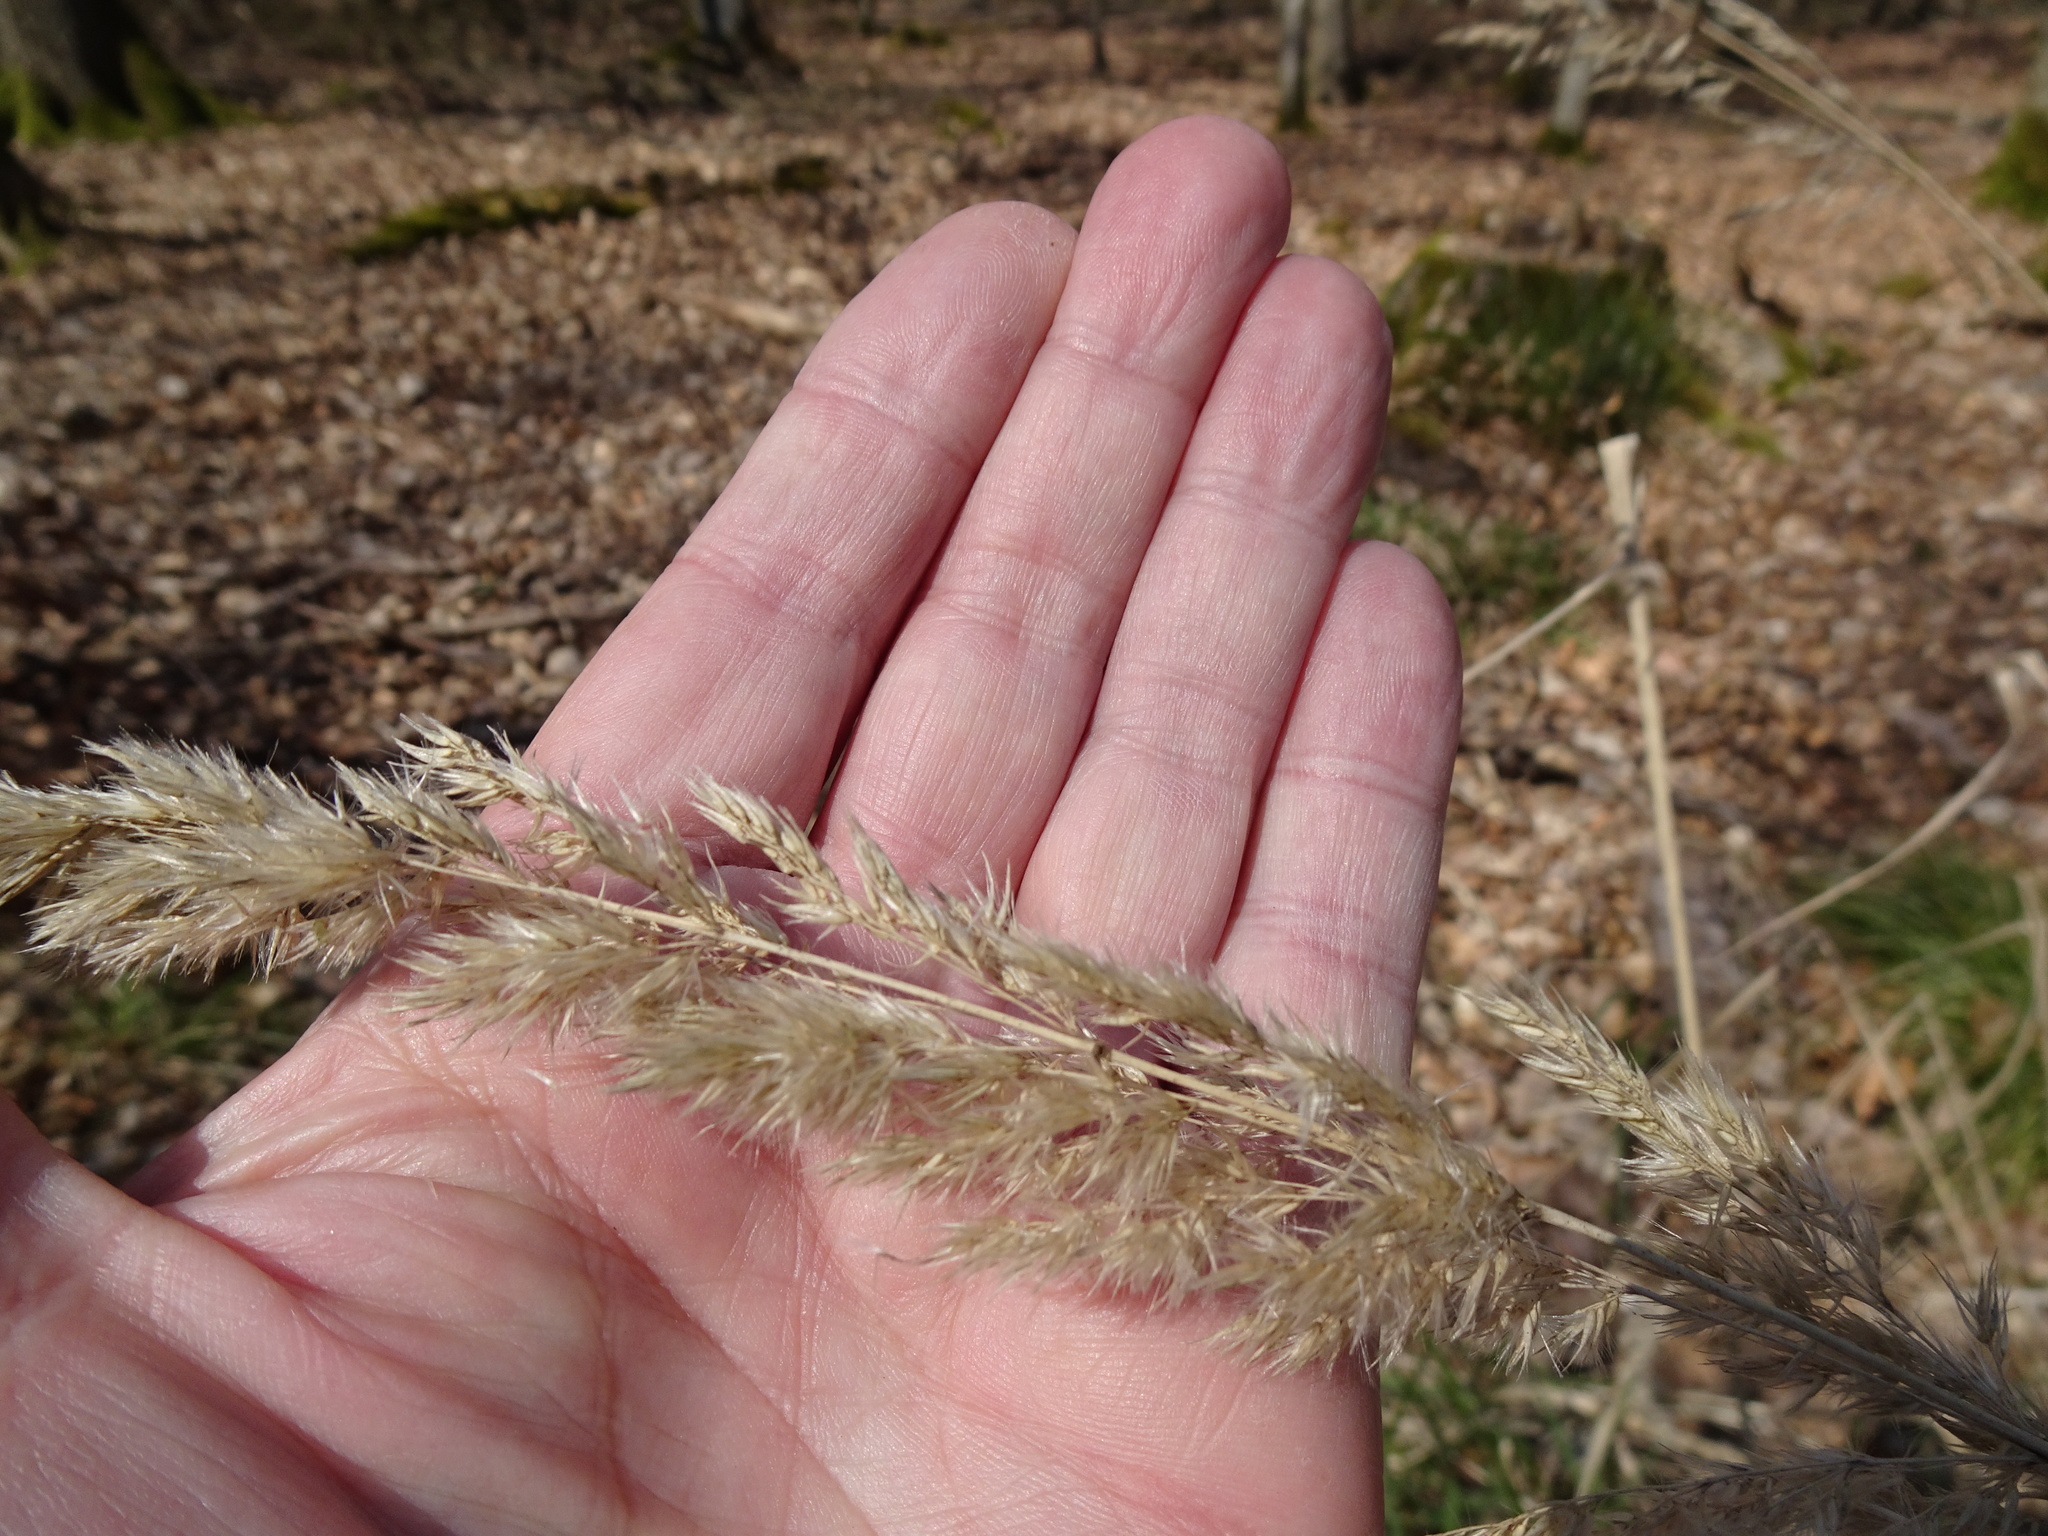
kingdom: Plantae
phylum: Tracheophyta
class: Liliopsida
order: Poales
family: Poaceae
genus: Calamagrostis
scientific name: Calamagrostis epigejos
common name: Wood small-reed
